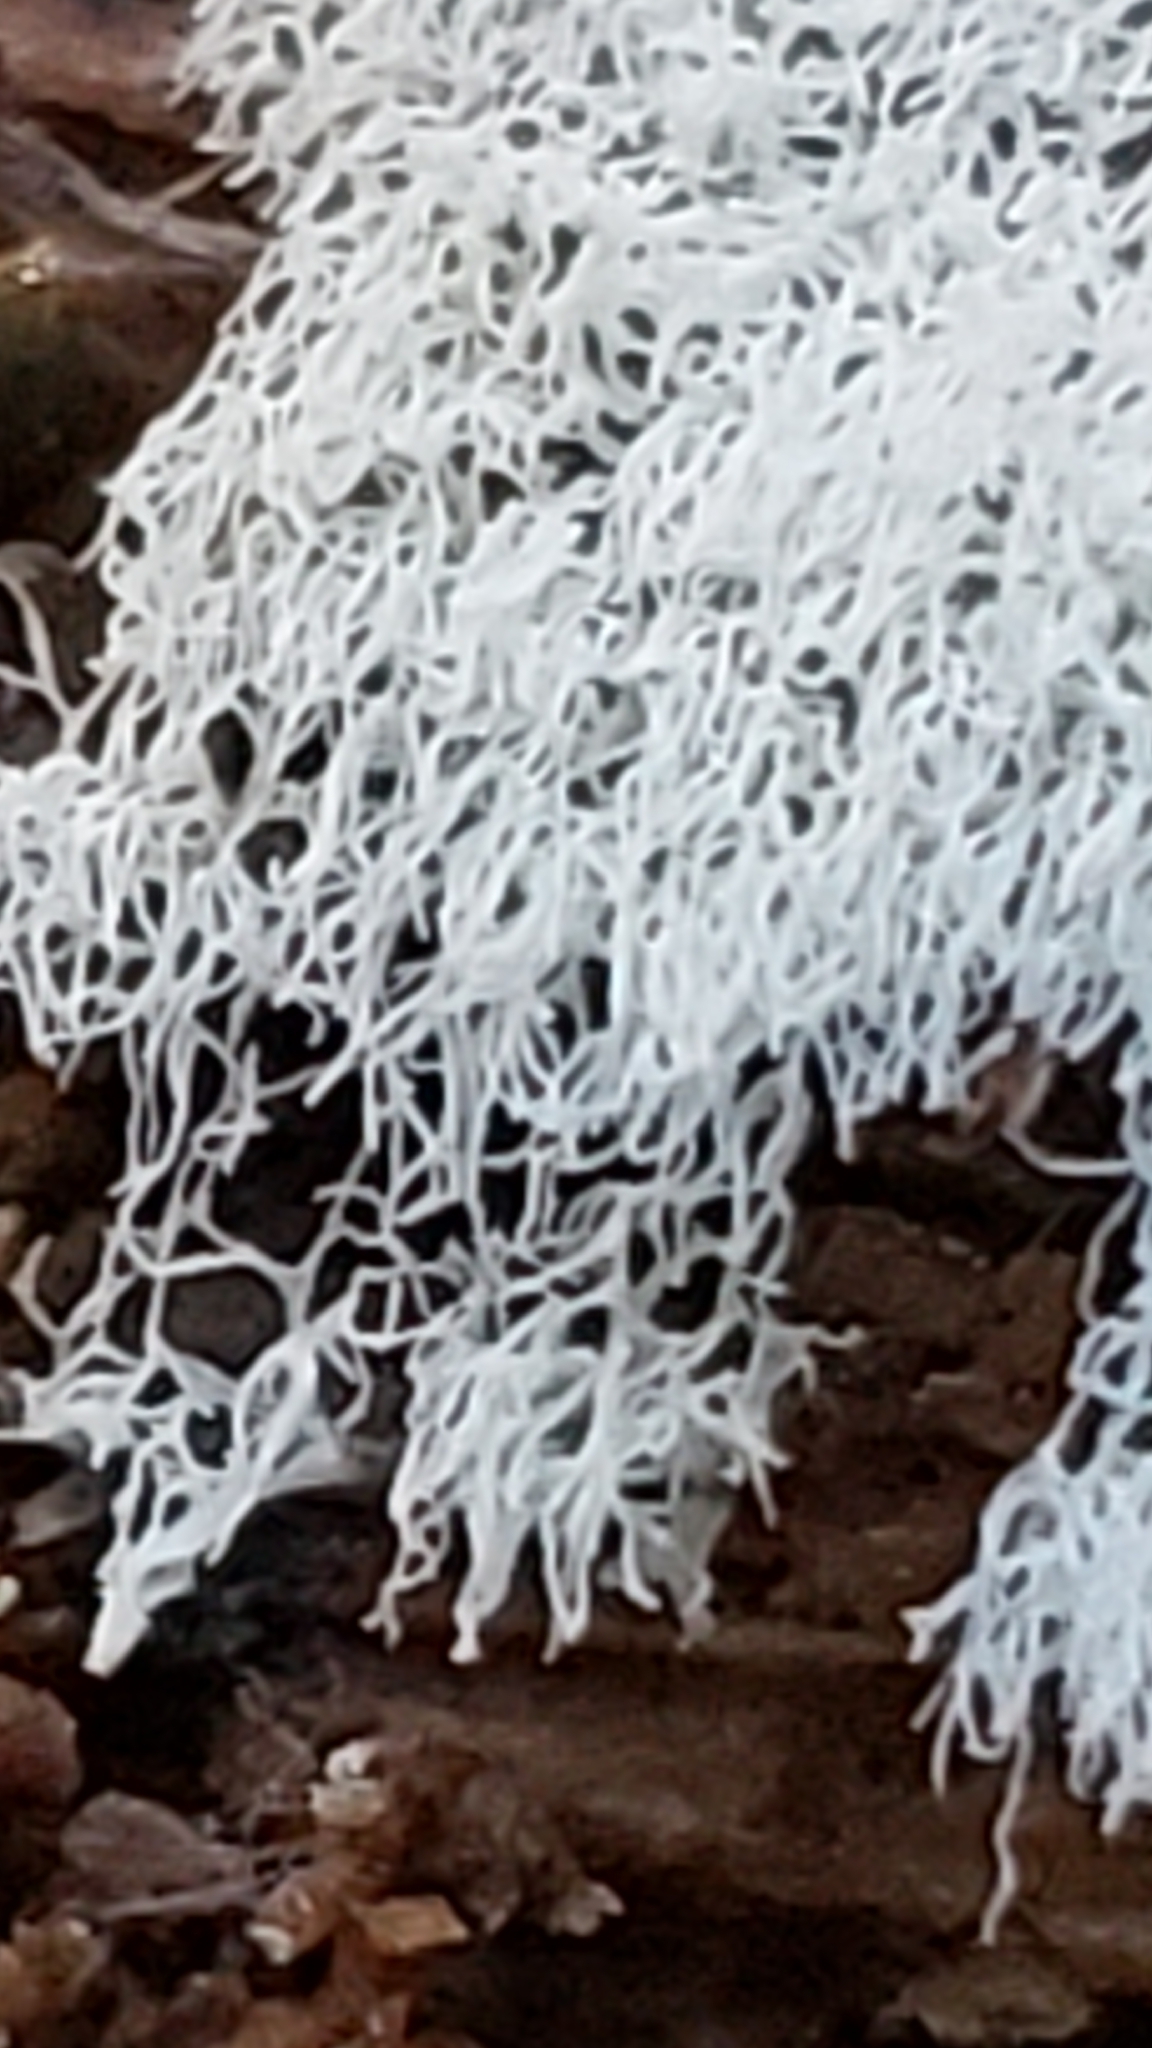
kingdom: Protozoa
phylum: Mycetozoa
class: Protosteliomycetes
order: Ceratiomyxales
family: Ceratiomyxaceae
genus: Ceratiomyxa
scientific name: Ceratiomyxa fruticulosa
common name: Honeycomb coral slime mold
